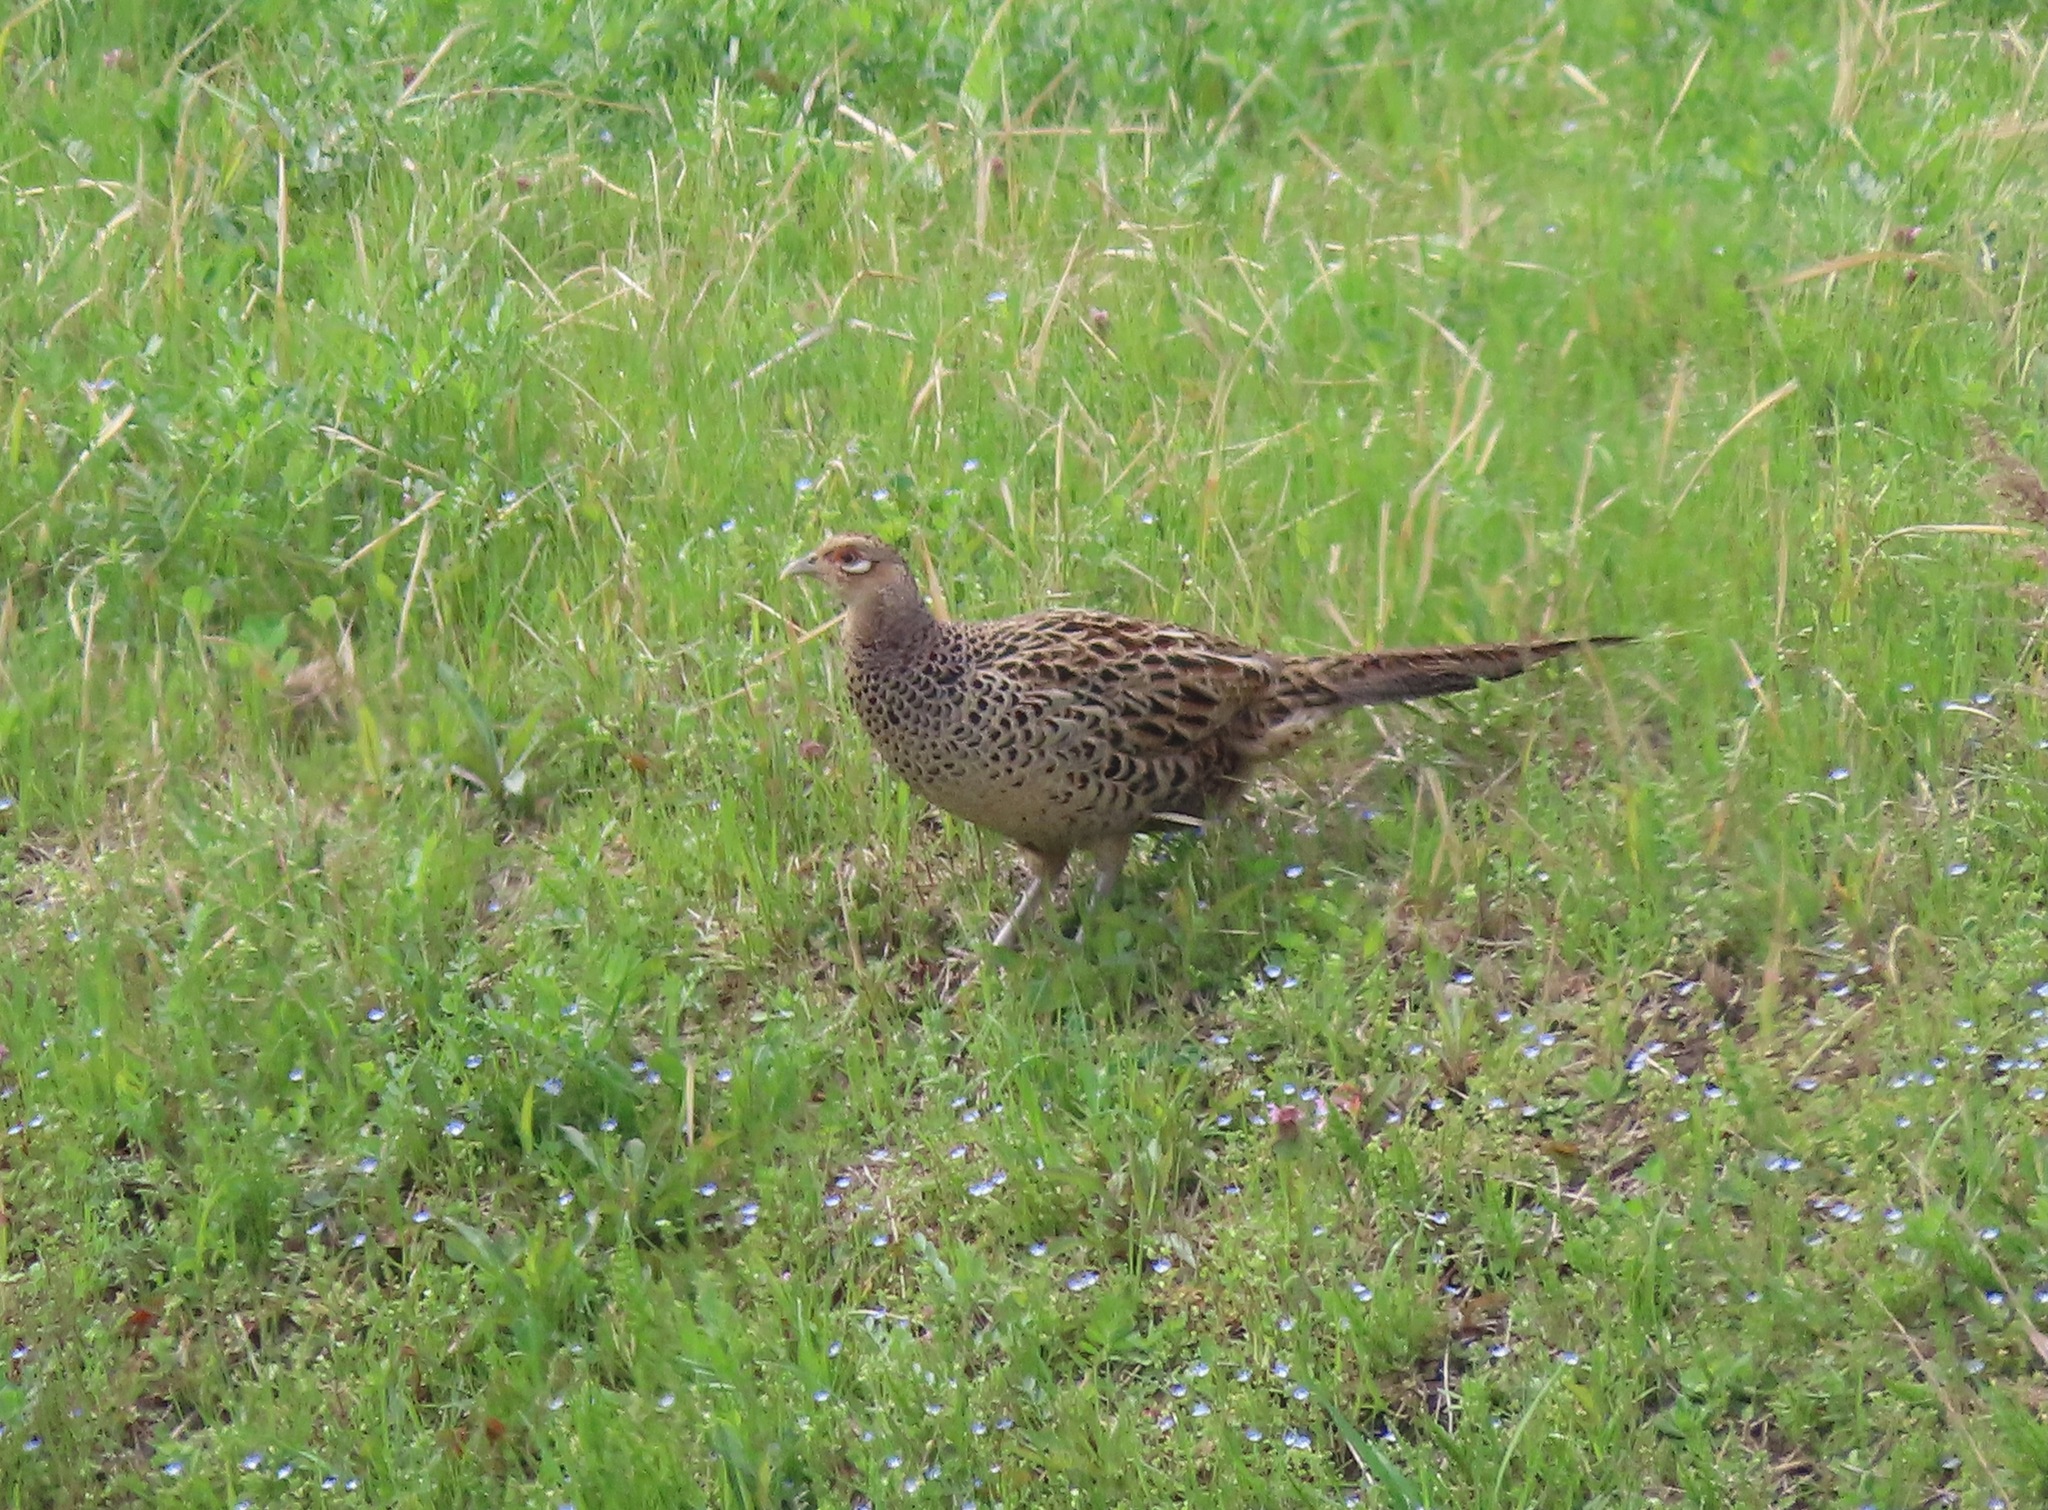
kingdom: Animalia
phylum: Chordata
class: Aves
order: Galliformes
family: Phasianidae
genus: Phasianus
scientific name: Phasianus versicolor
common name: Green pheasant
